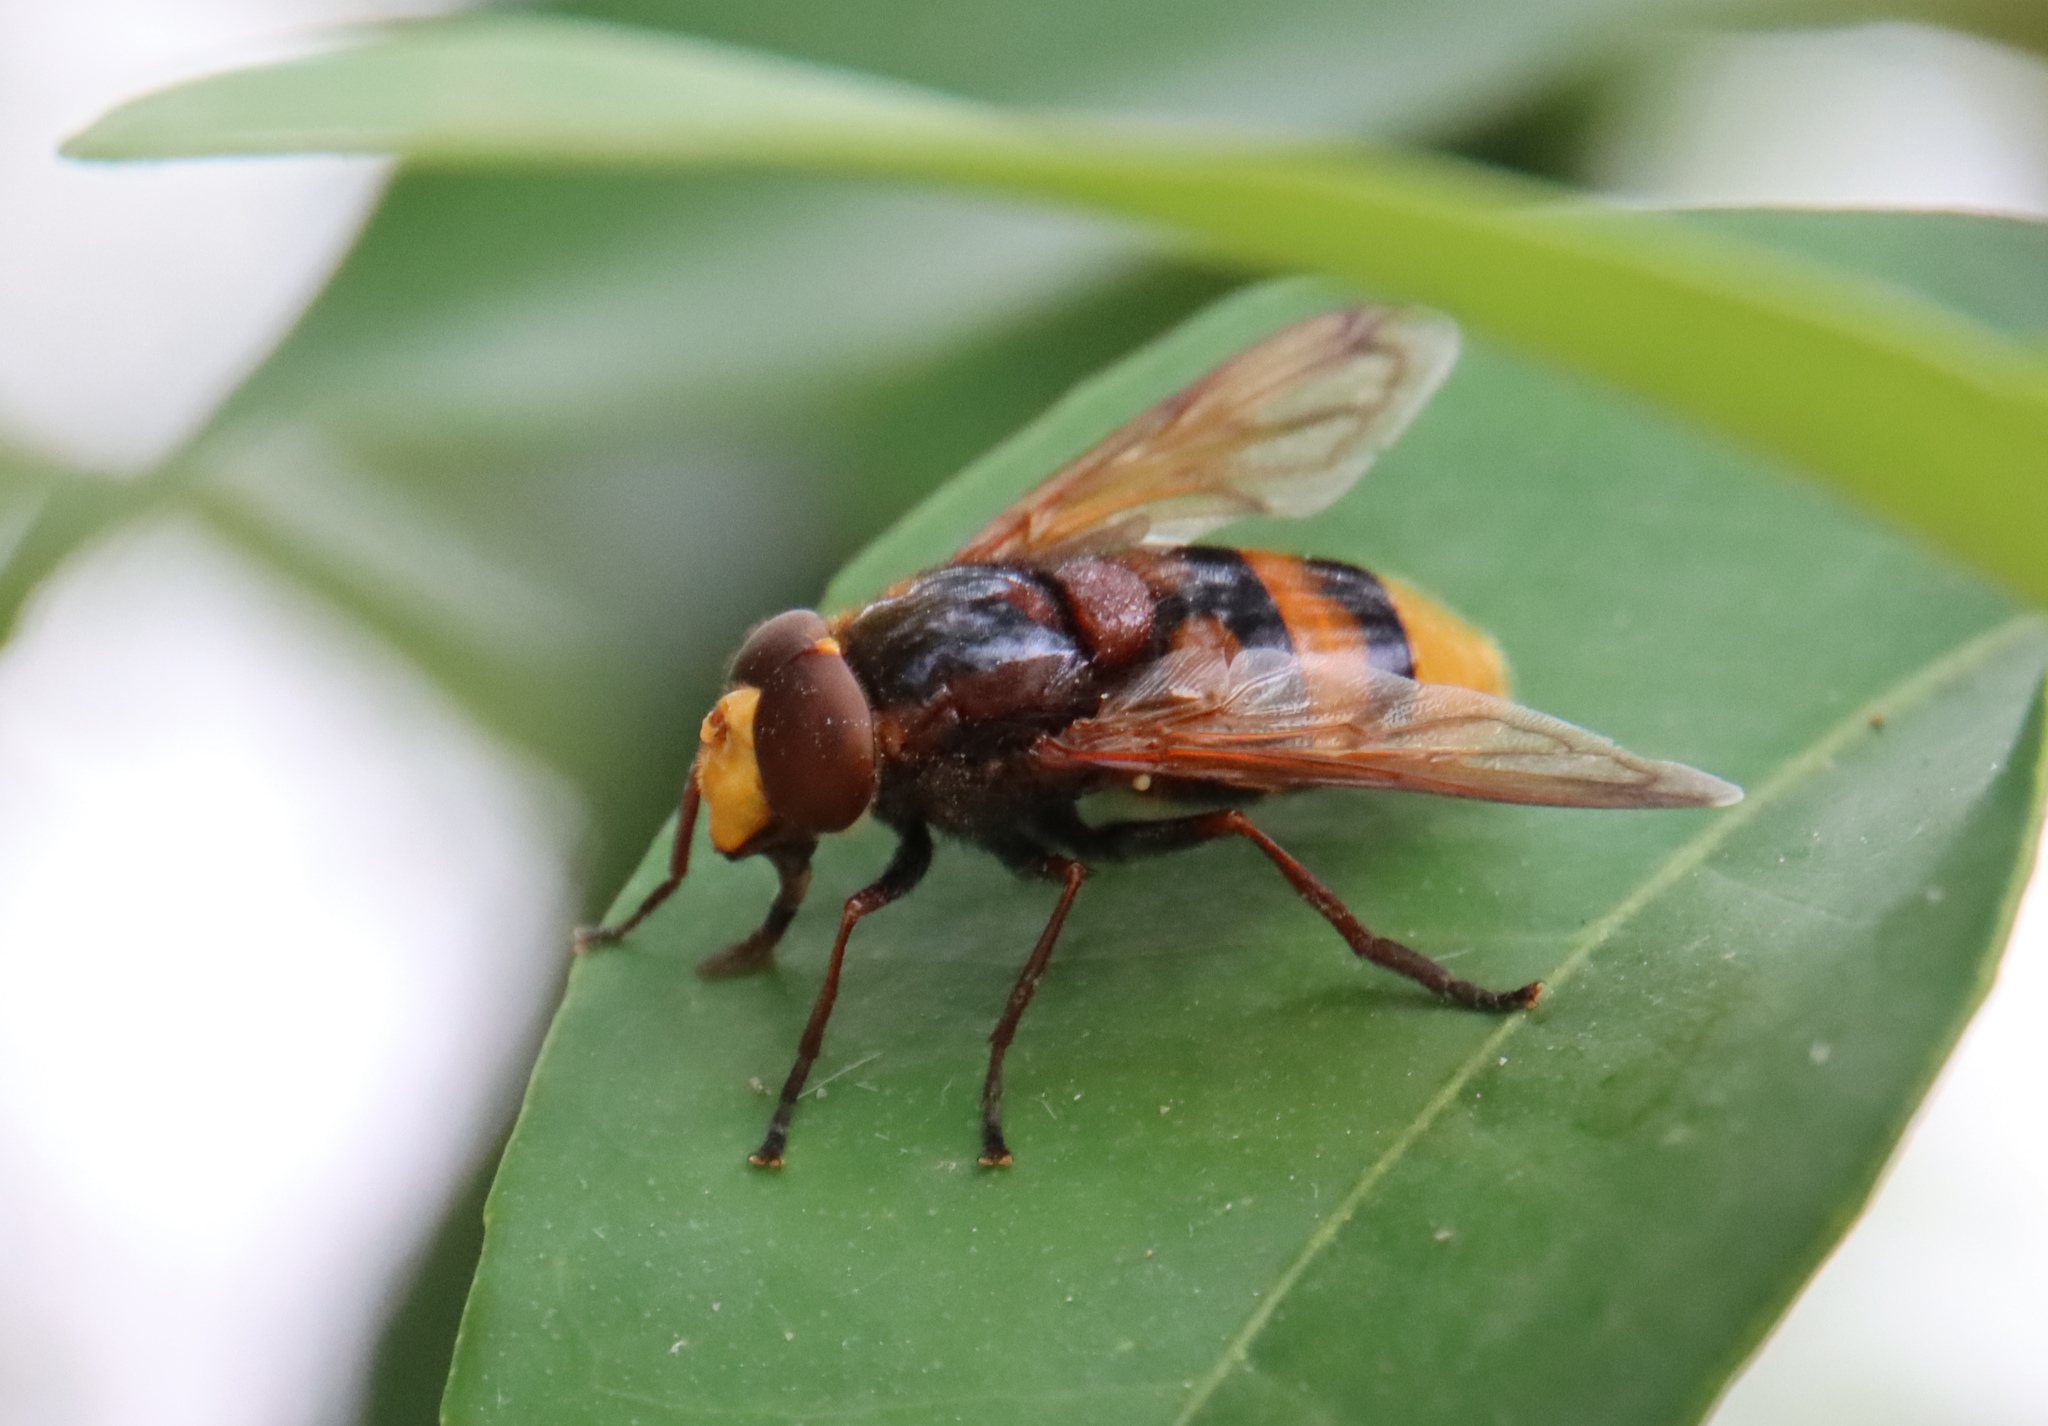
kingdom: Animalia
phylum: Arthropoda
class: Insecta
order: Diptera
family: Syrphidae
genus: Volucella
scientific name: Volucella zonaria
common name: Hornet hoverfly
